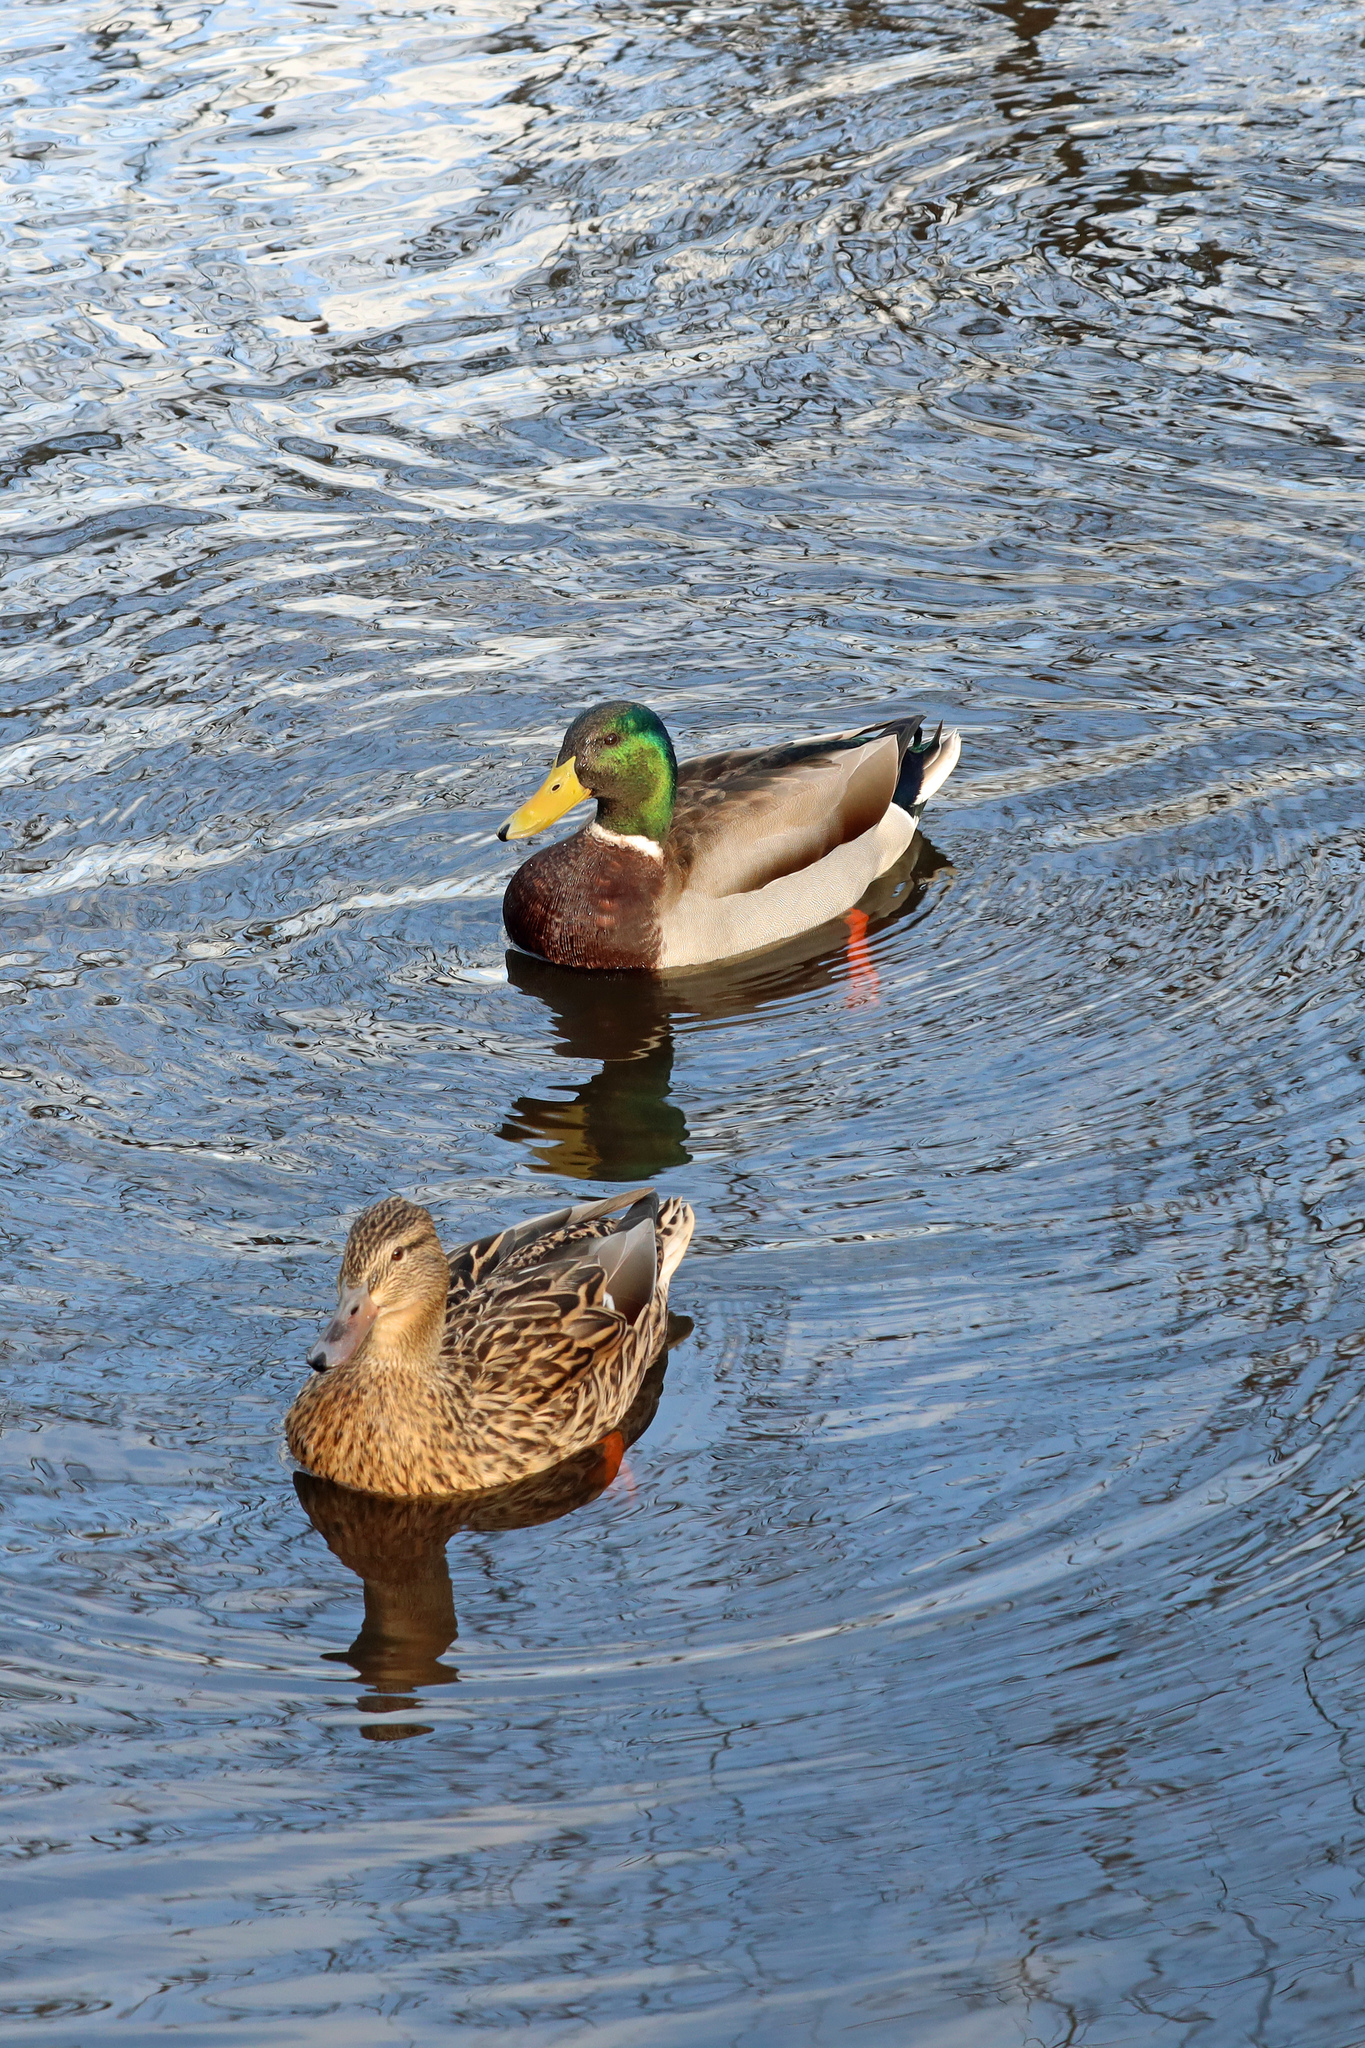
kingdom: Animalia
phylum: Chordata
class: Aves
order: Anseriformes
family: Anatidae
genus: Anas
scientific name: Anas platyrhynchos
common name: Mallard
